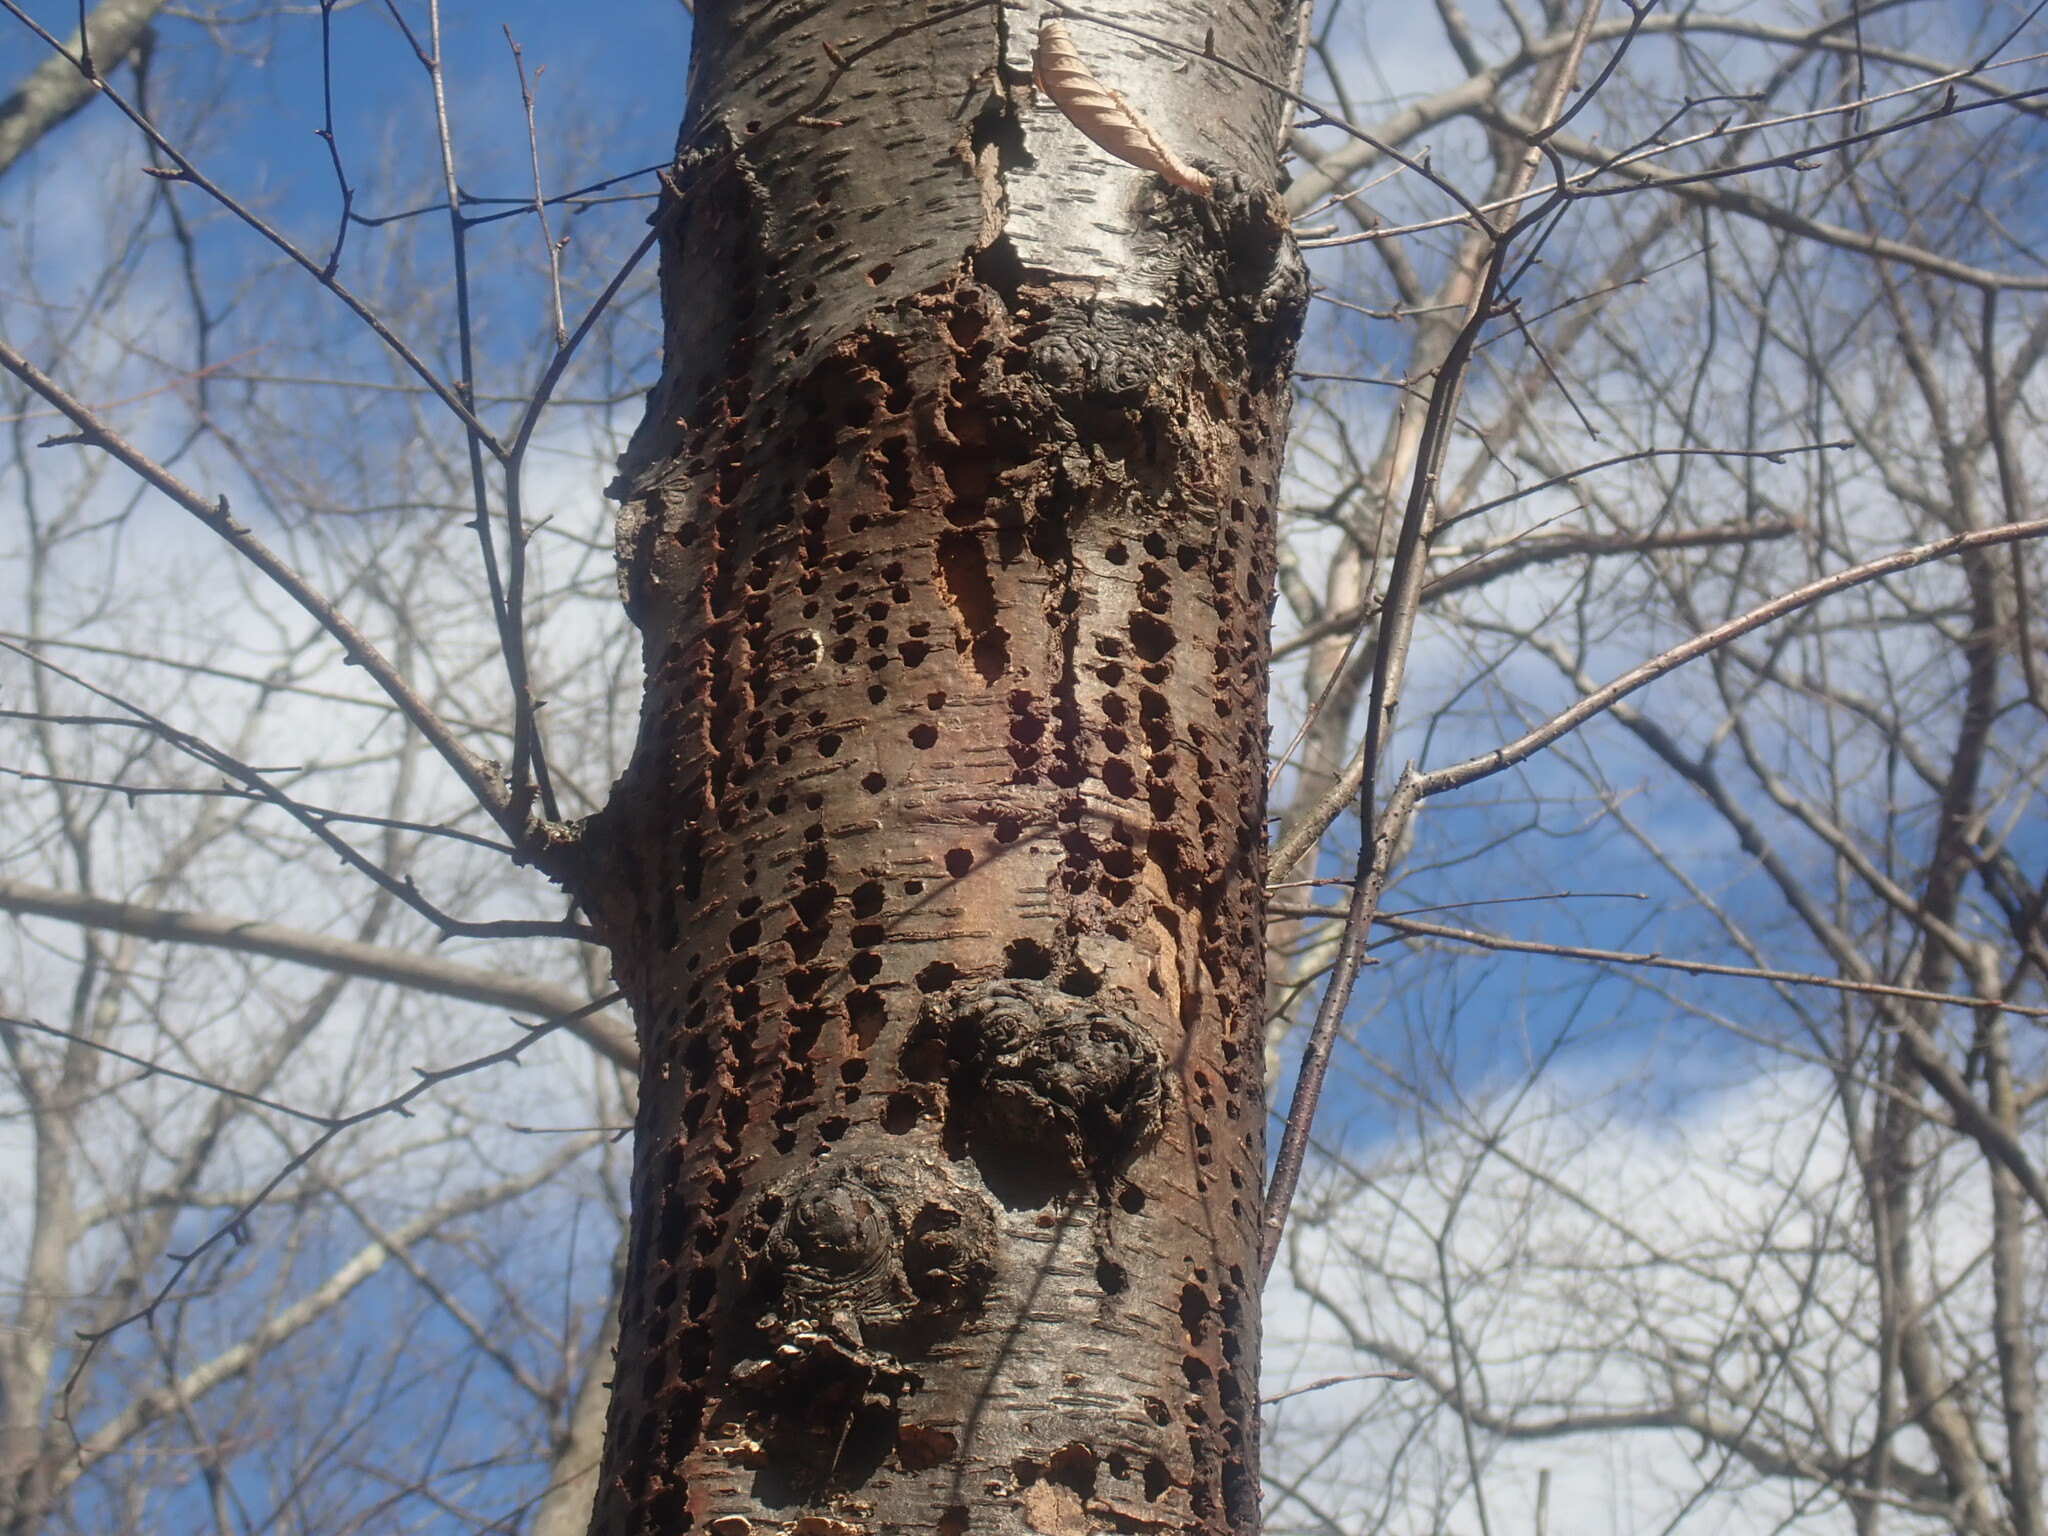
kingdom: Animalia
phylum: Chordata
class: Aves
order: Piciformes
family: Picidae
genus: Sphyrapicus
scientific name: Sphyrapicus varius
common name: Yellow-bellied sapsucker
